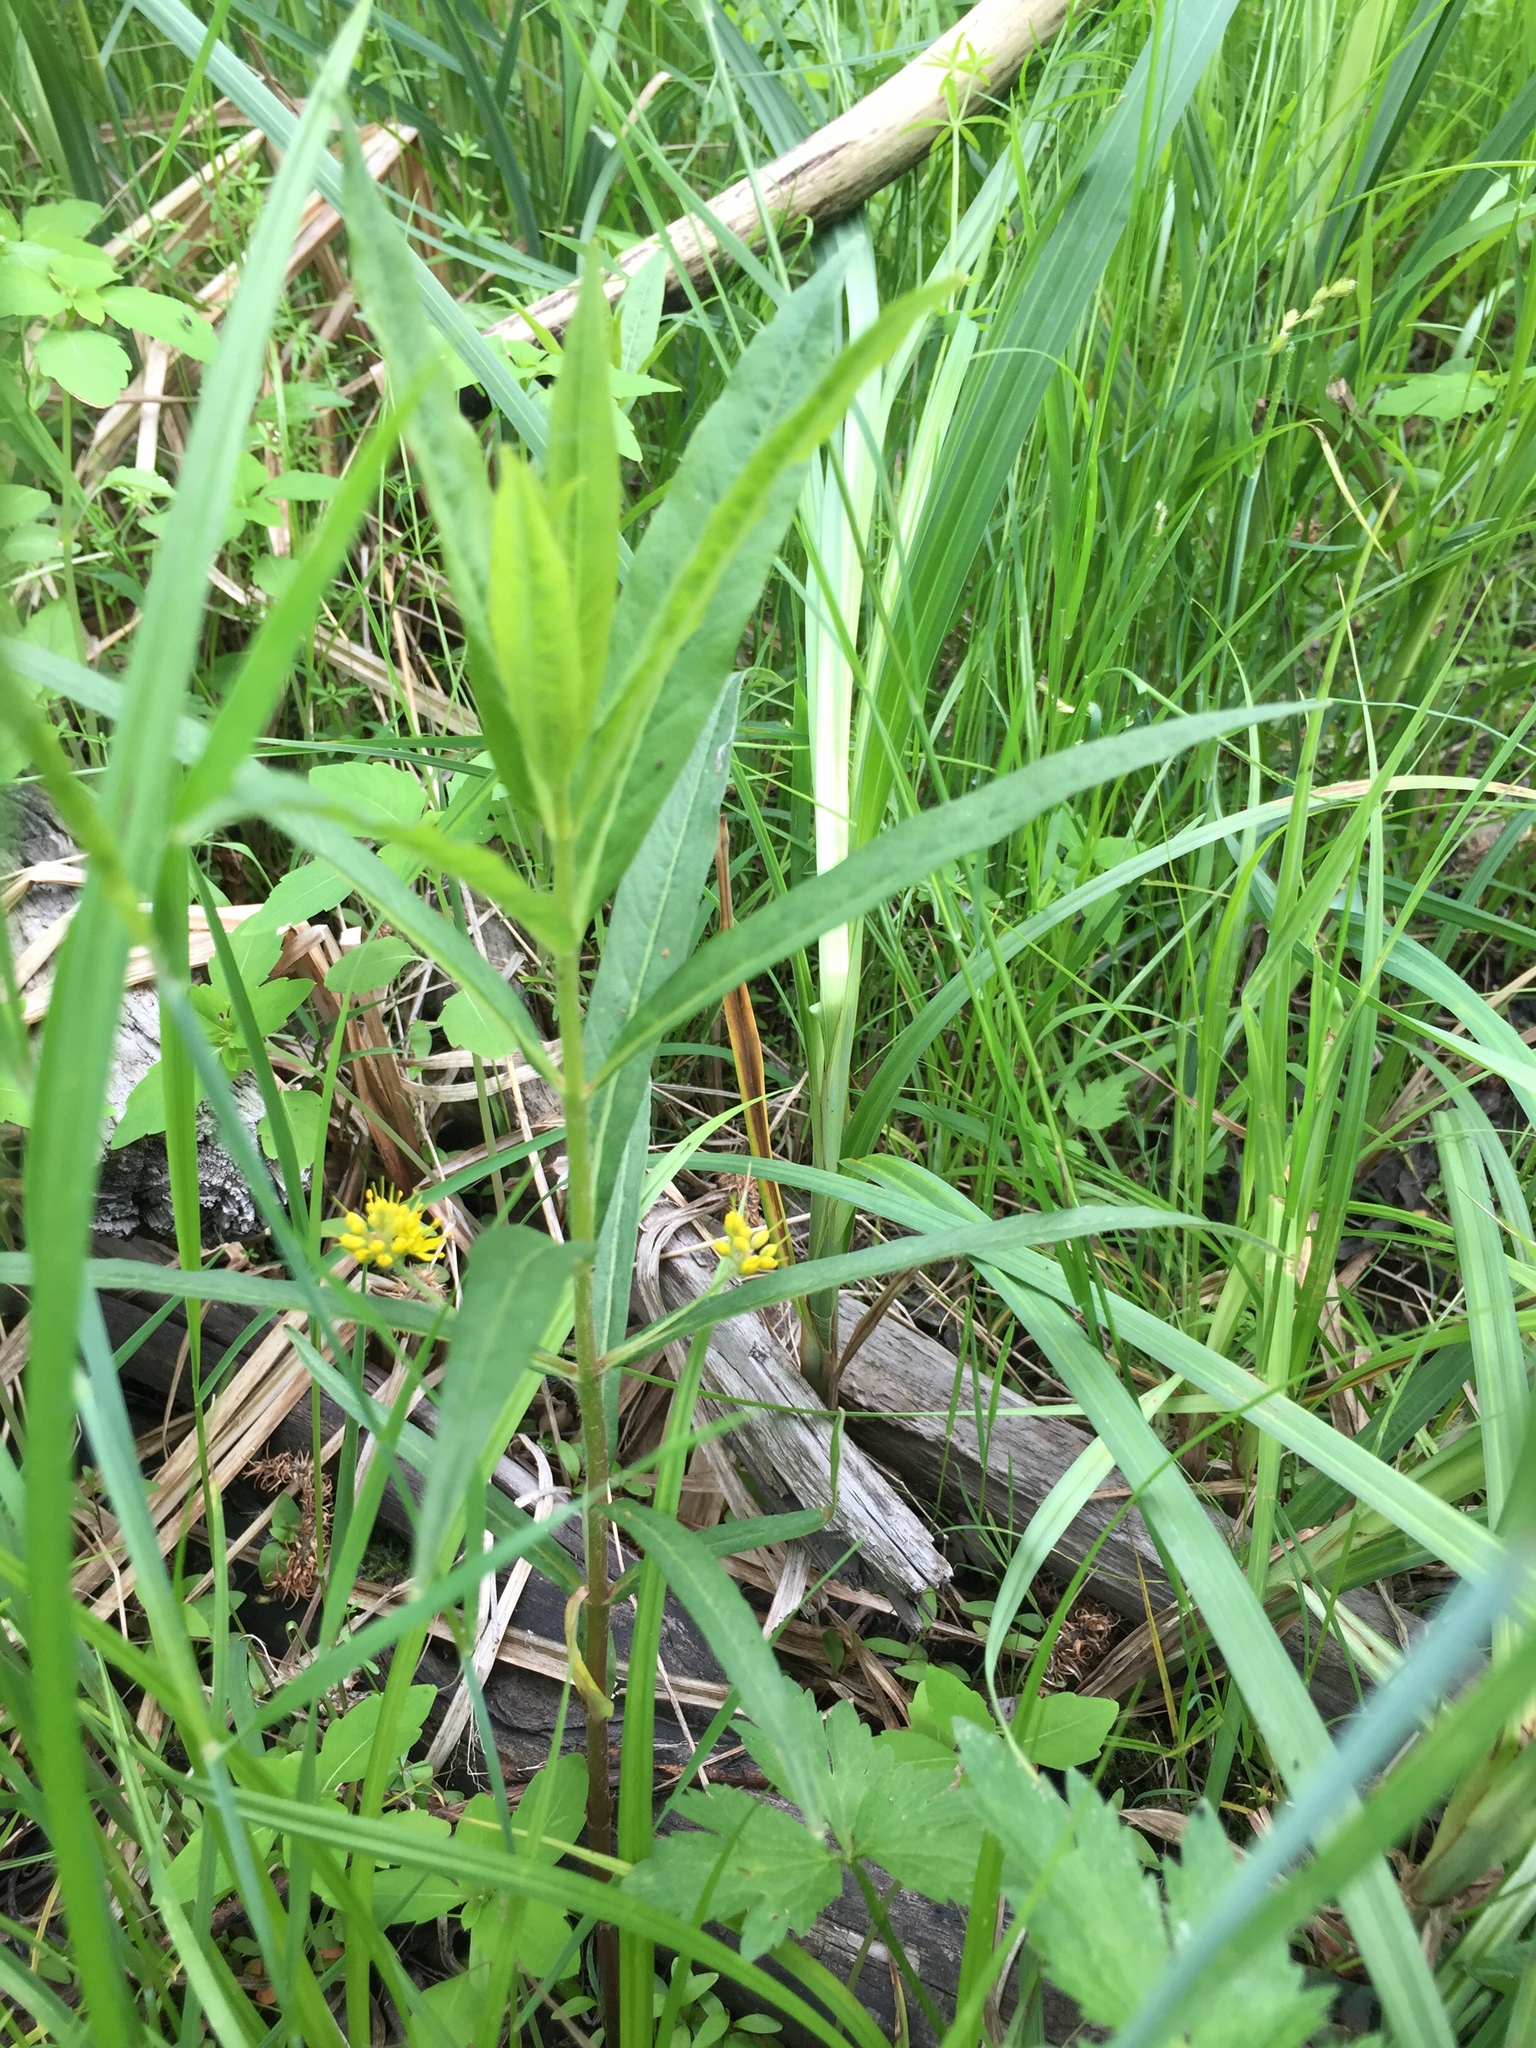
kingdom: Plantae
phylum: Tracheophyta
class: Magnoliopsida
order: Ericales
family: Primulaceae
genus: Lysimachia
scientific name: Lysimachia thyrsiflora
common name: Tufted loosestrife
